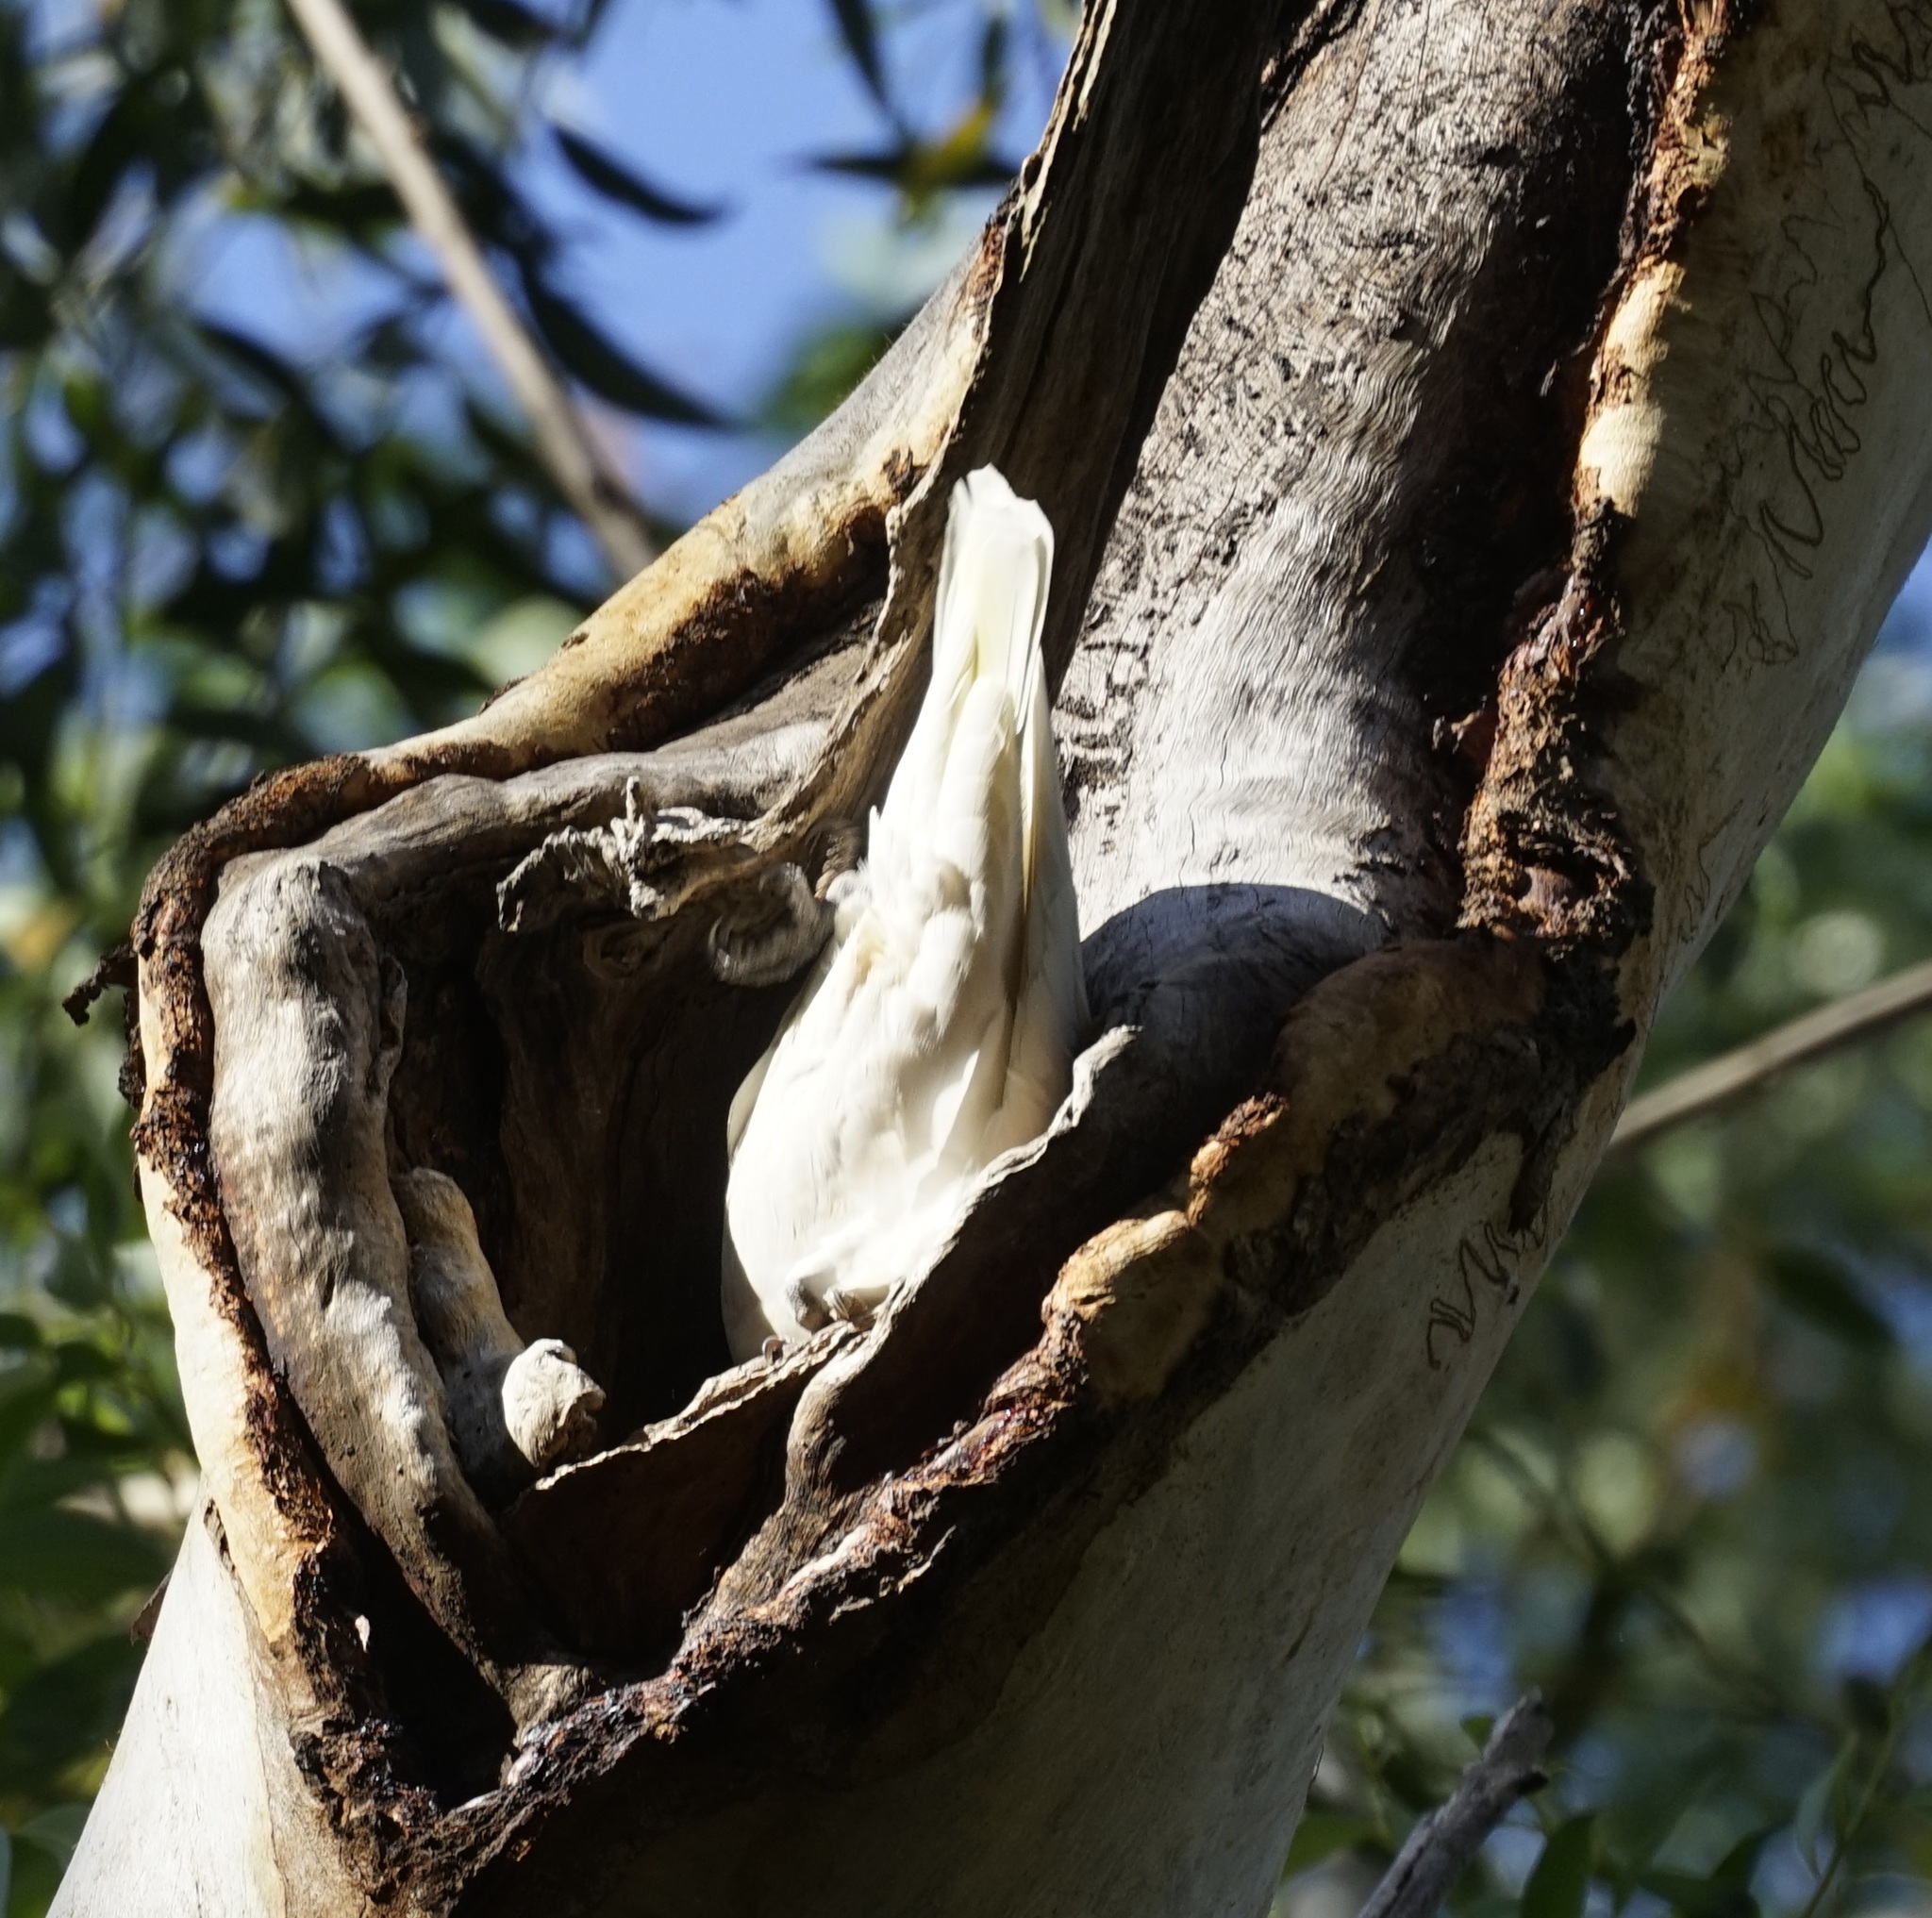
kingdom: Animalia
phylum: Chordata
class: Aves
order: Psittaciformes
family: Psittacidae
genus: Cacatua
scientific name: Cacatua galerita
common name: Sulphur-crested cockatoo
